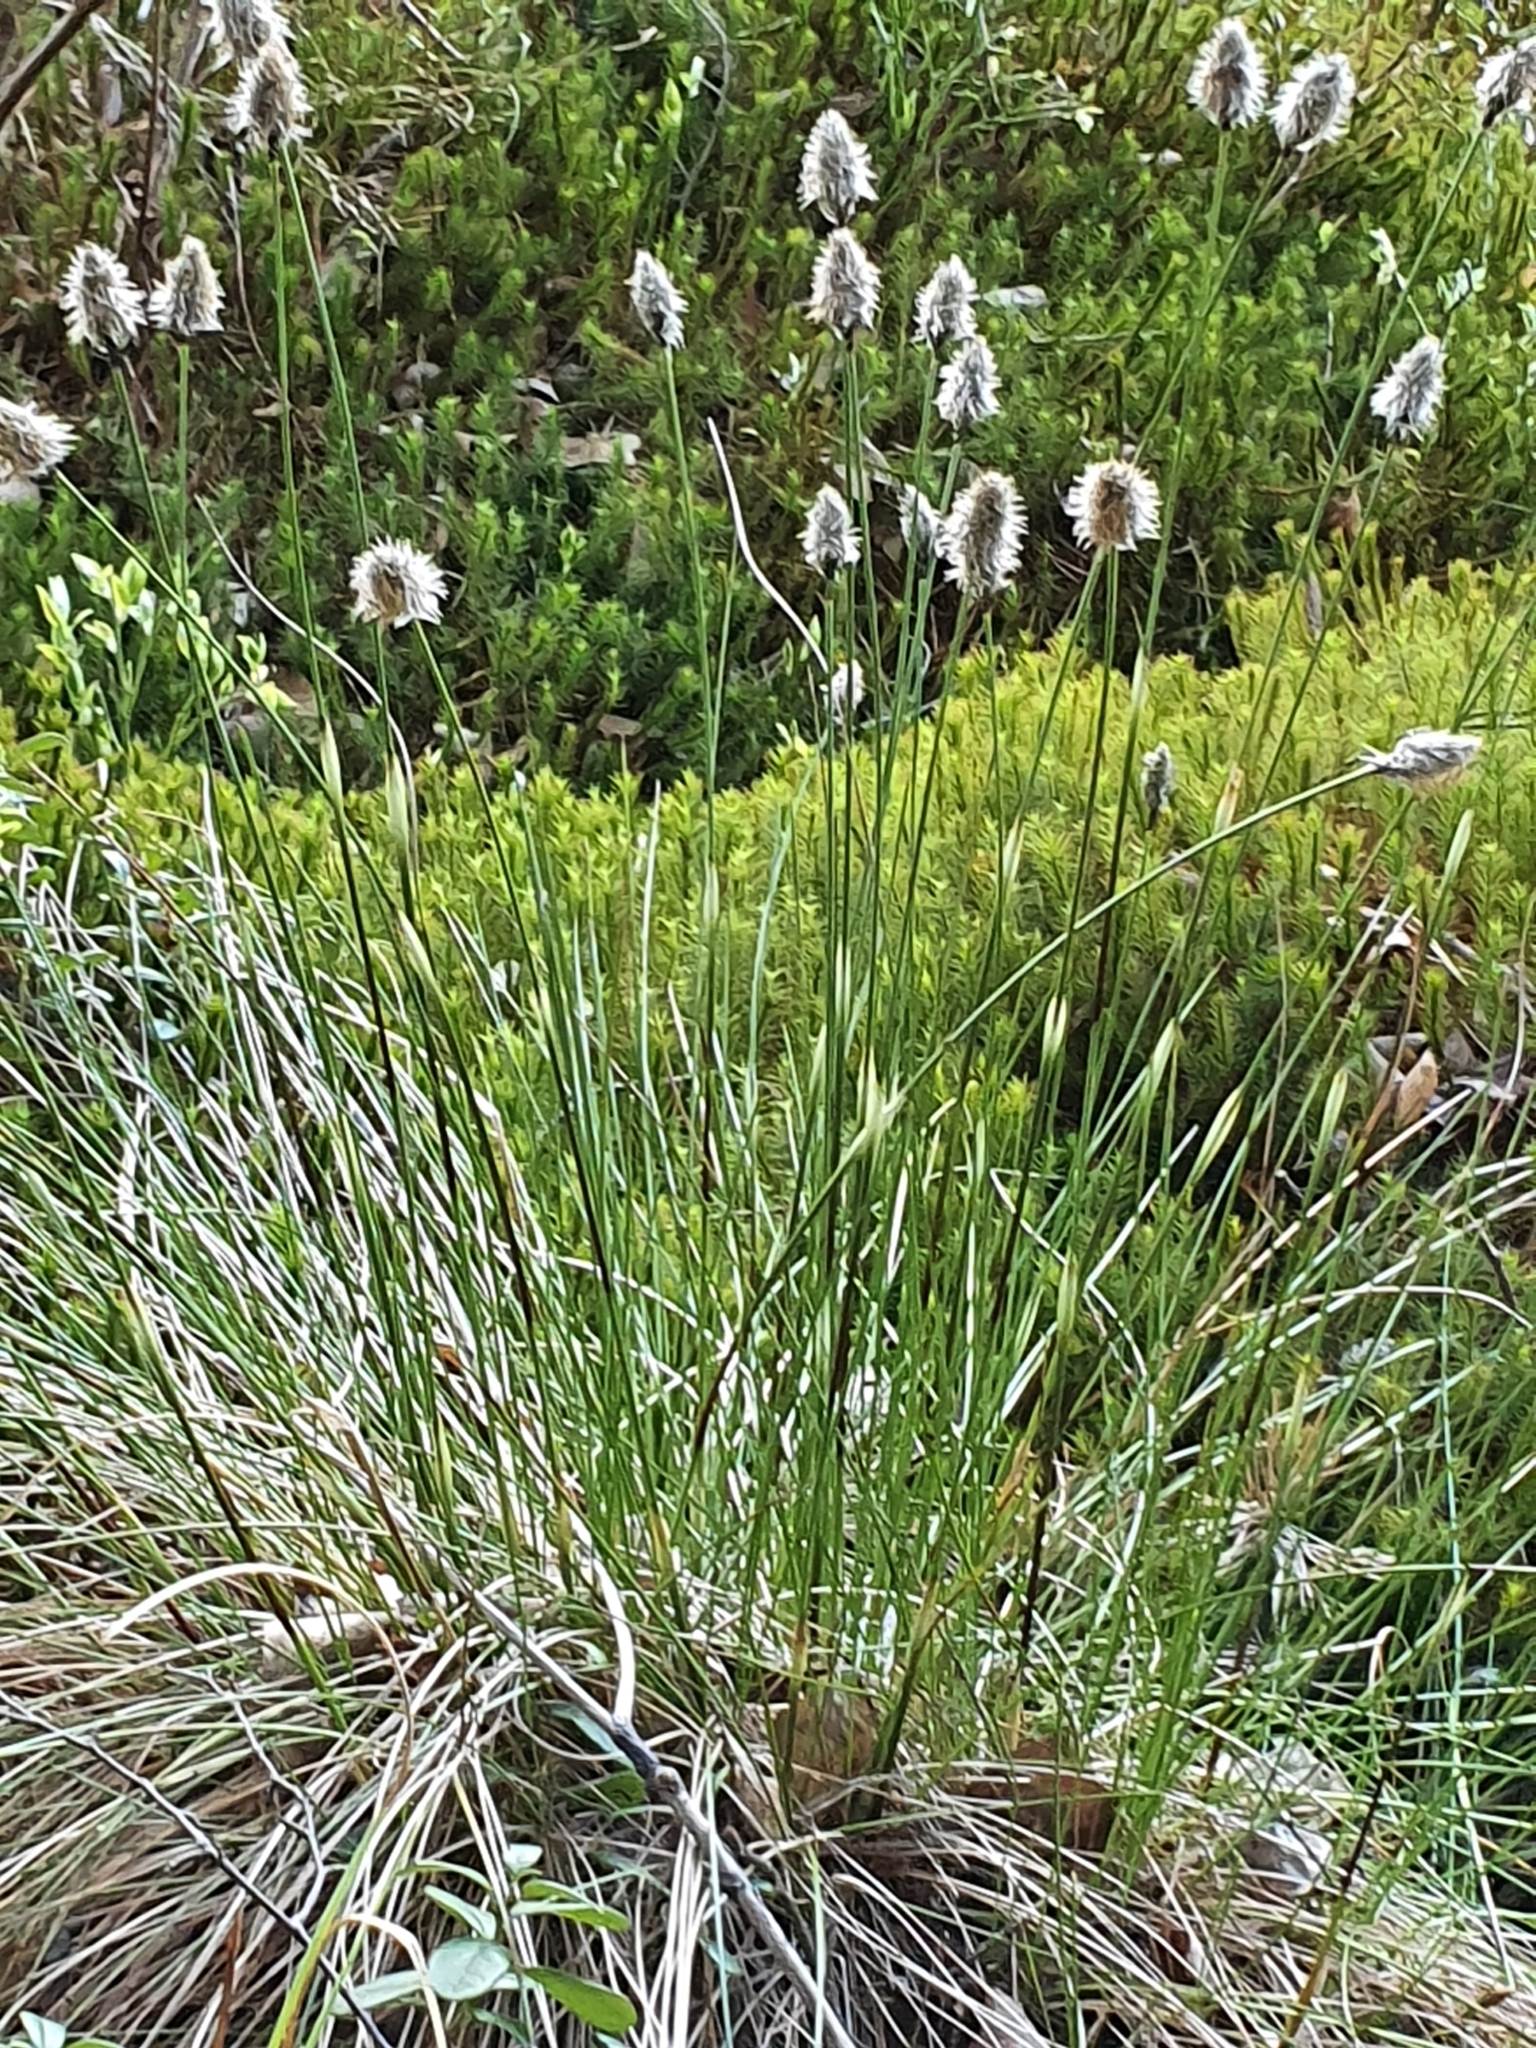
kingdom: Plantae
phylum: Tracheophyta
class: Liliopsida
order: Poales
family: Cyperaceae
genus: Eriophorum
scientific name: Eriophorum vaginatum
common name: Hare's-tail cottongrass
